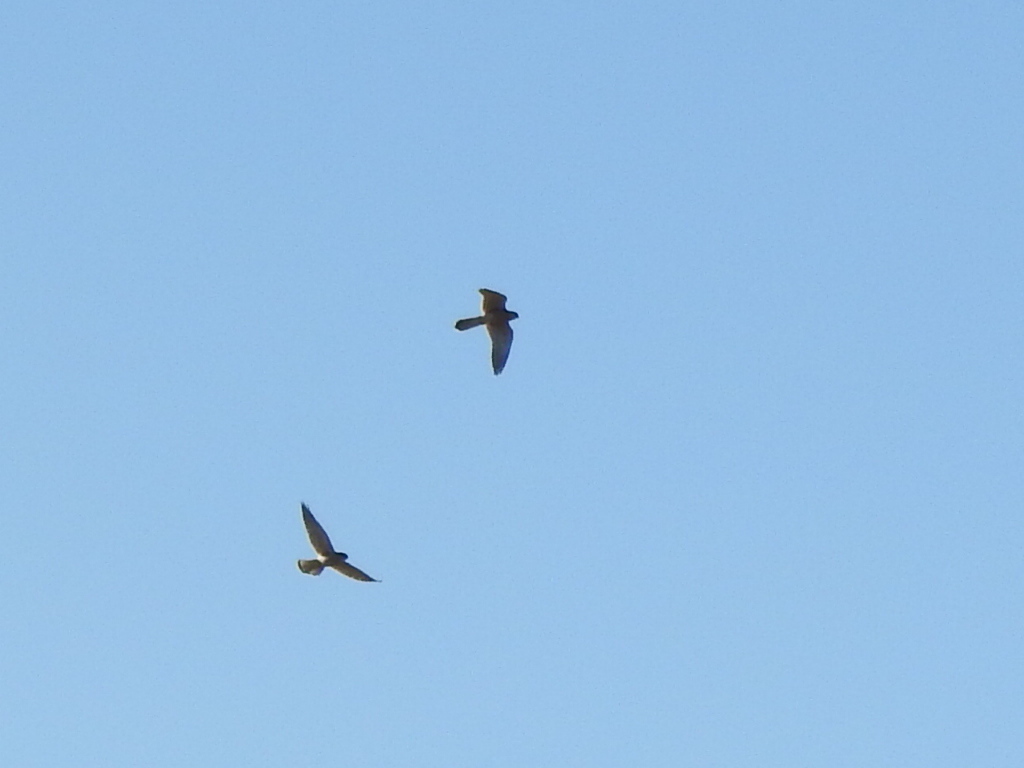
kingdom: Animalia
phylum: Chordata
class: Aves
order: Falconiformes
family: Falconidae
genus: Falco
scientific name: Falco tinnunculus
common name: Common kestrel
